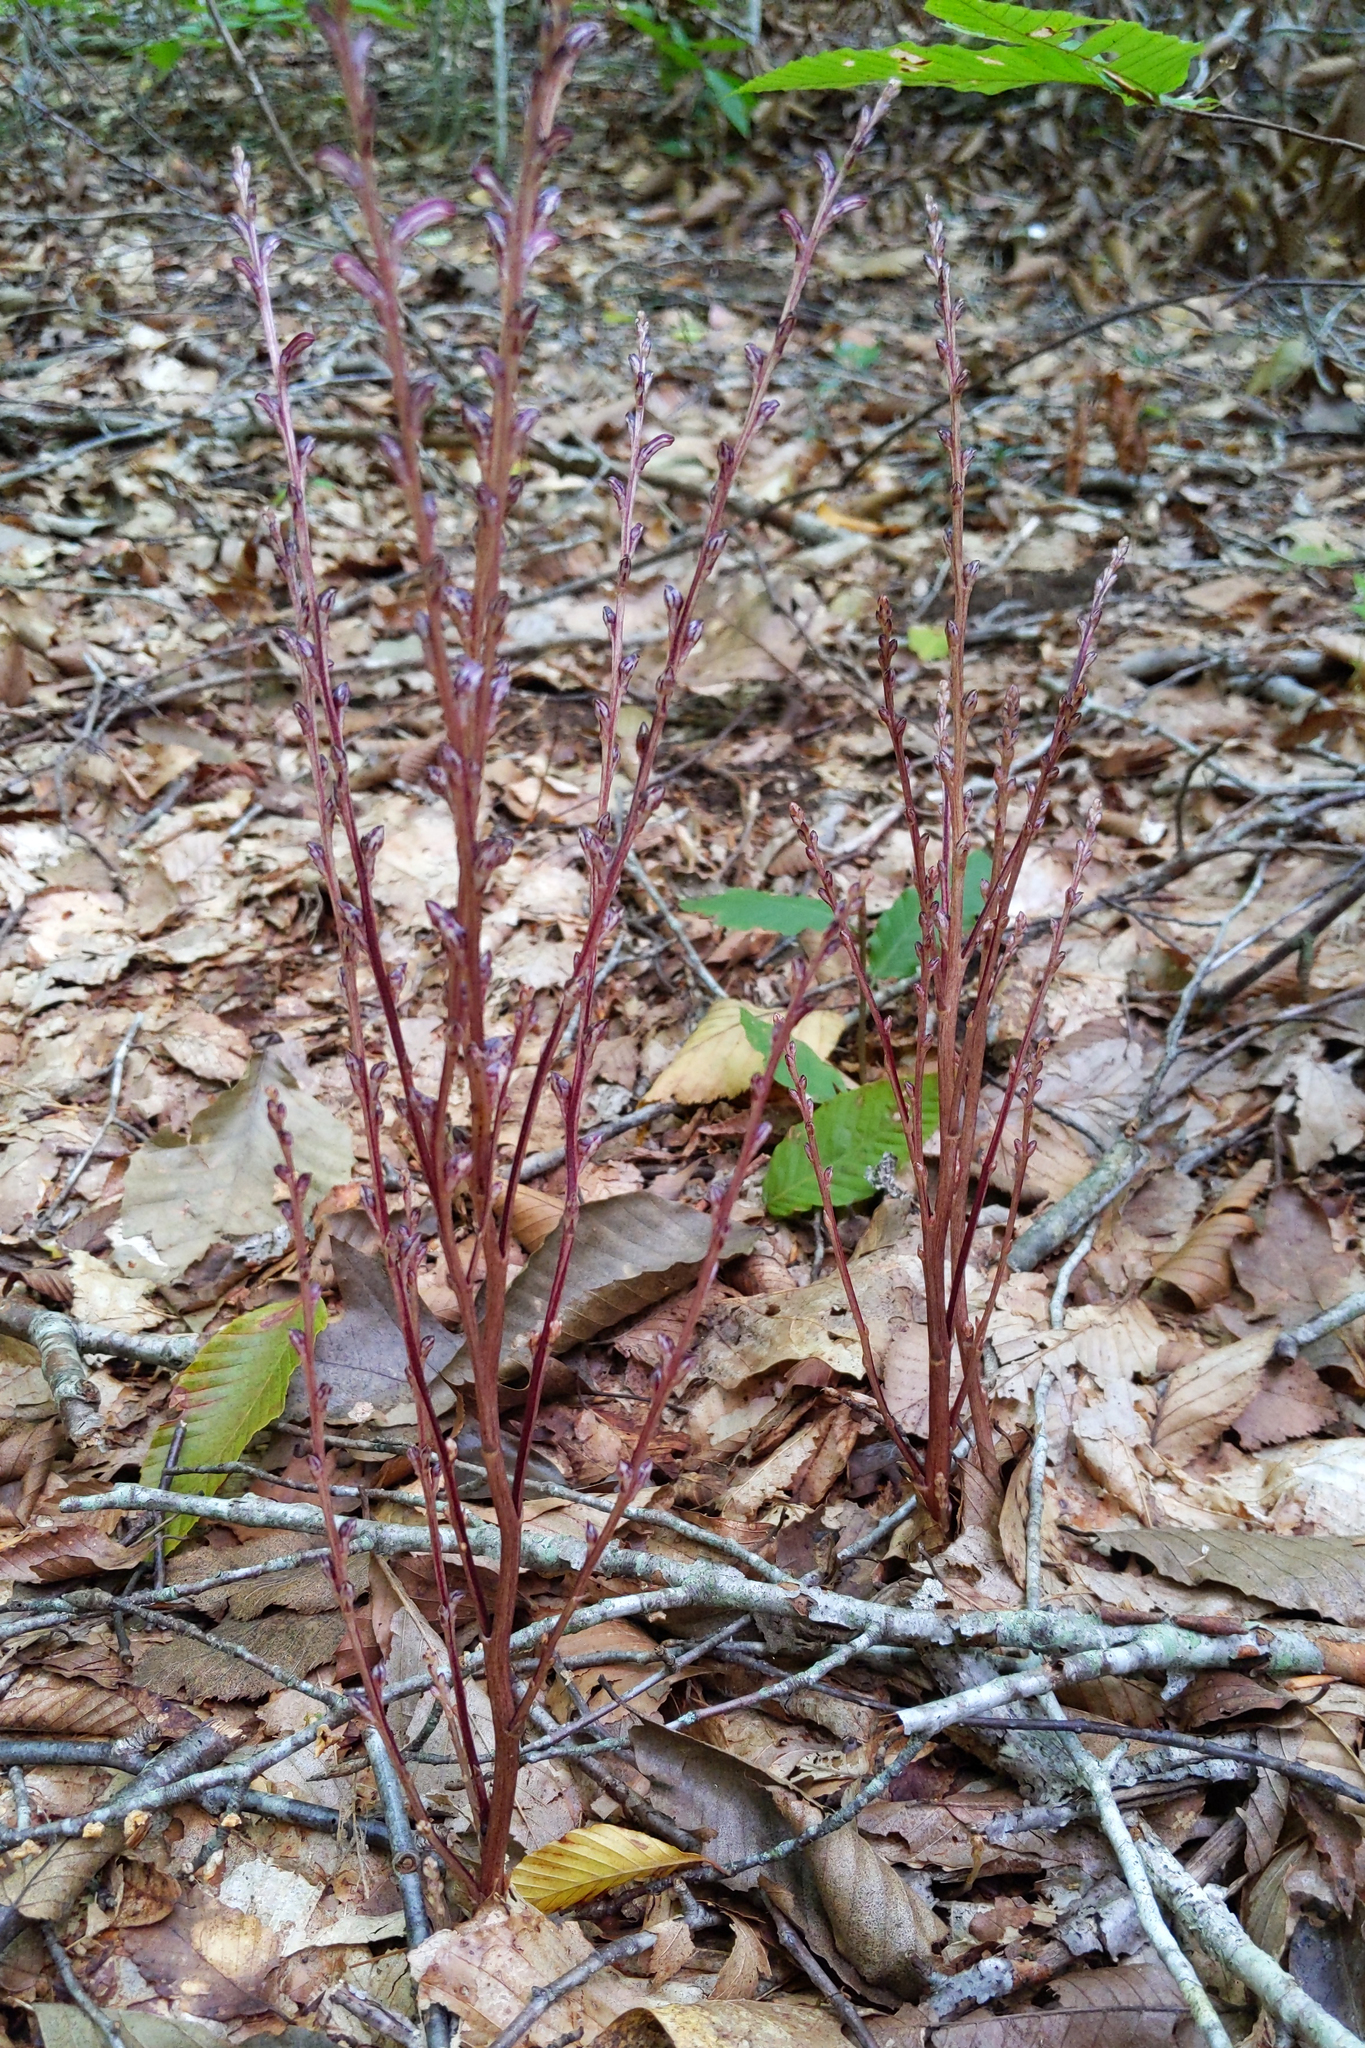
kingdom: Plantae
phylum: Tracheophyta
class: Magnoliopsida
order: Lamiales
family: Orobanchaceae
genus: Epifagus
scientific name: Epifagus virginiana
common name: Beechdrops
